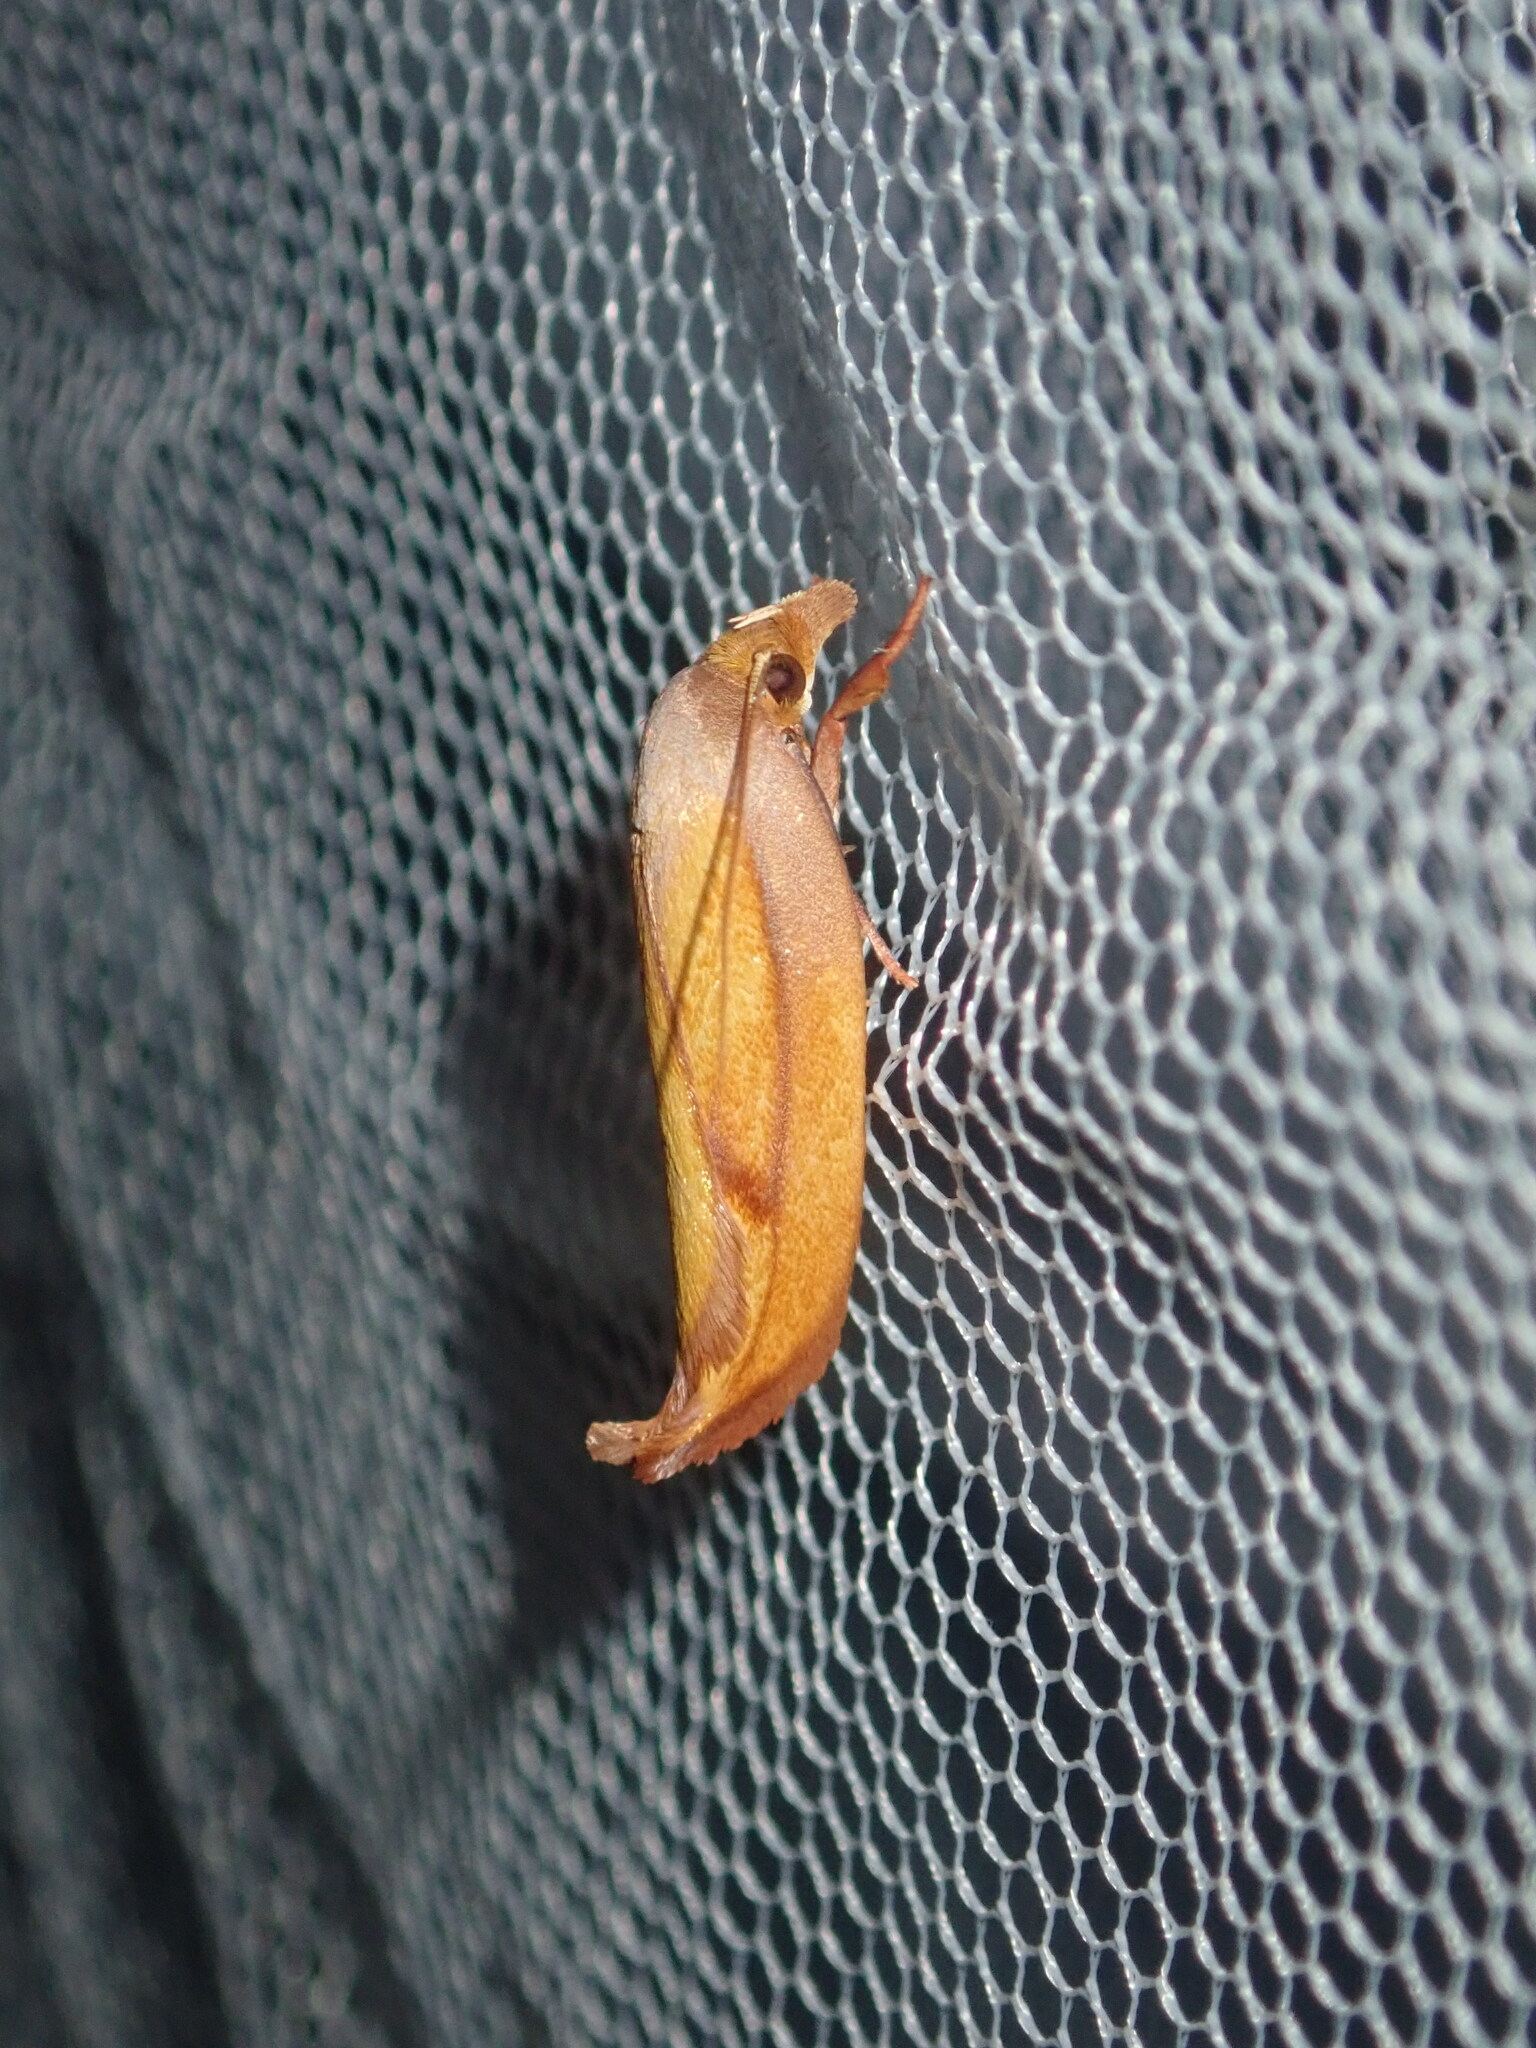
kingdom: Animalia
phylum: Arthropoda
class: Insecta
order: Lepidoptera
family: Oecophoridae
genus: Wingia
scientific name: Wingia aurata
